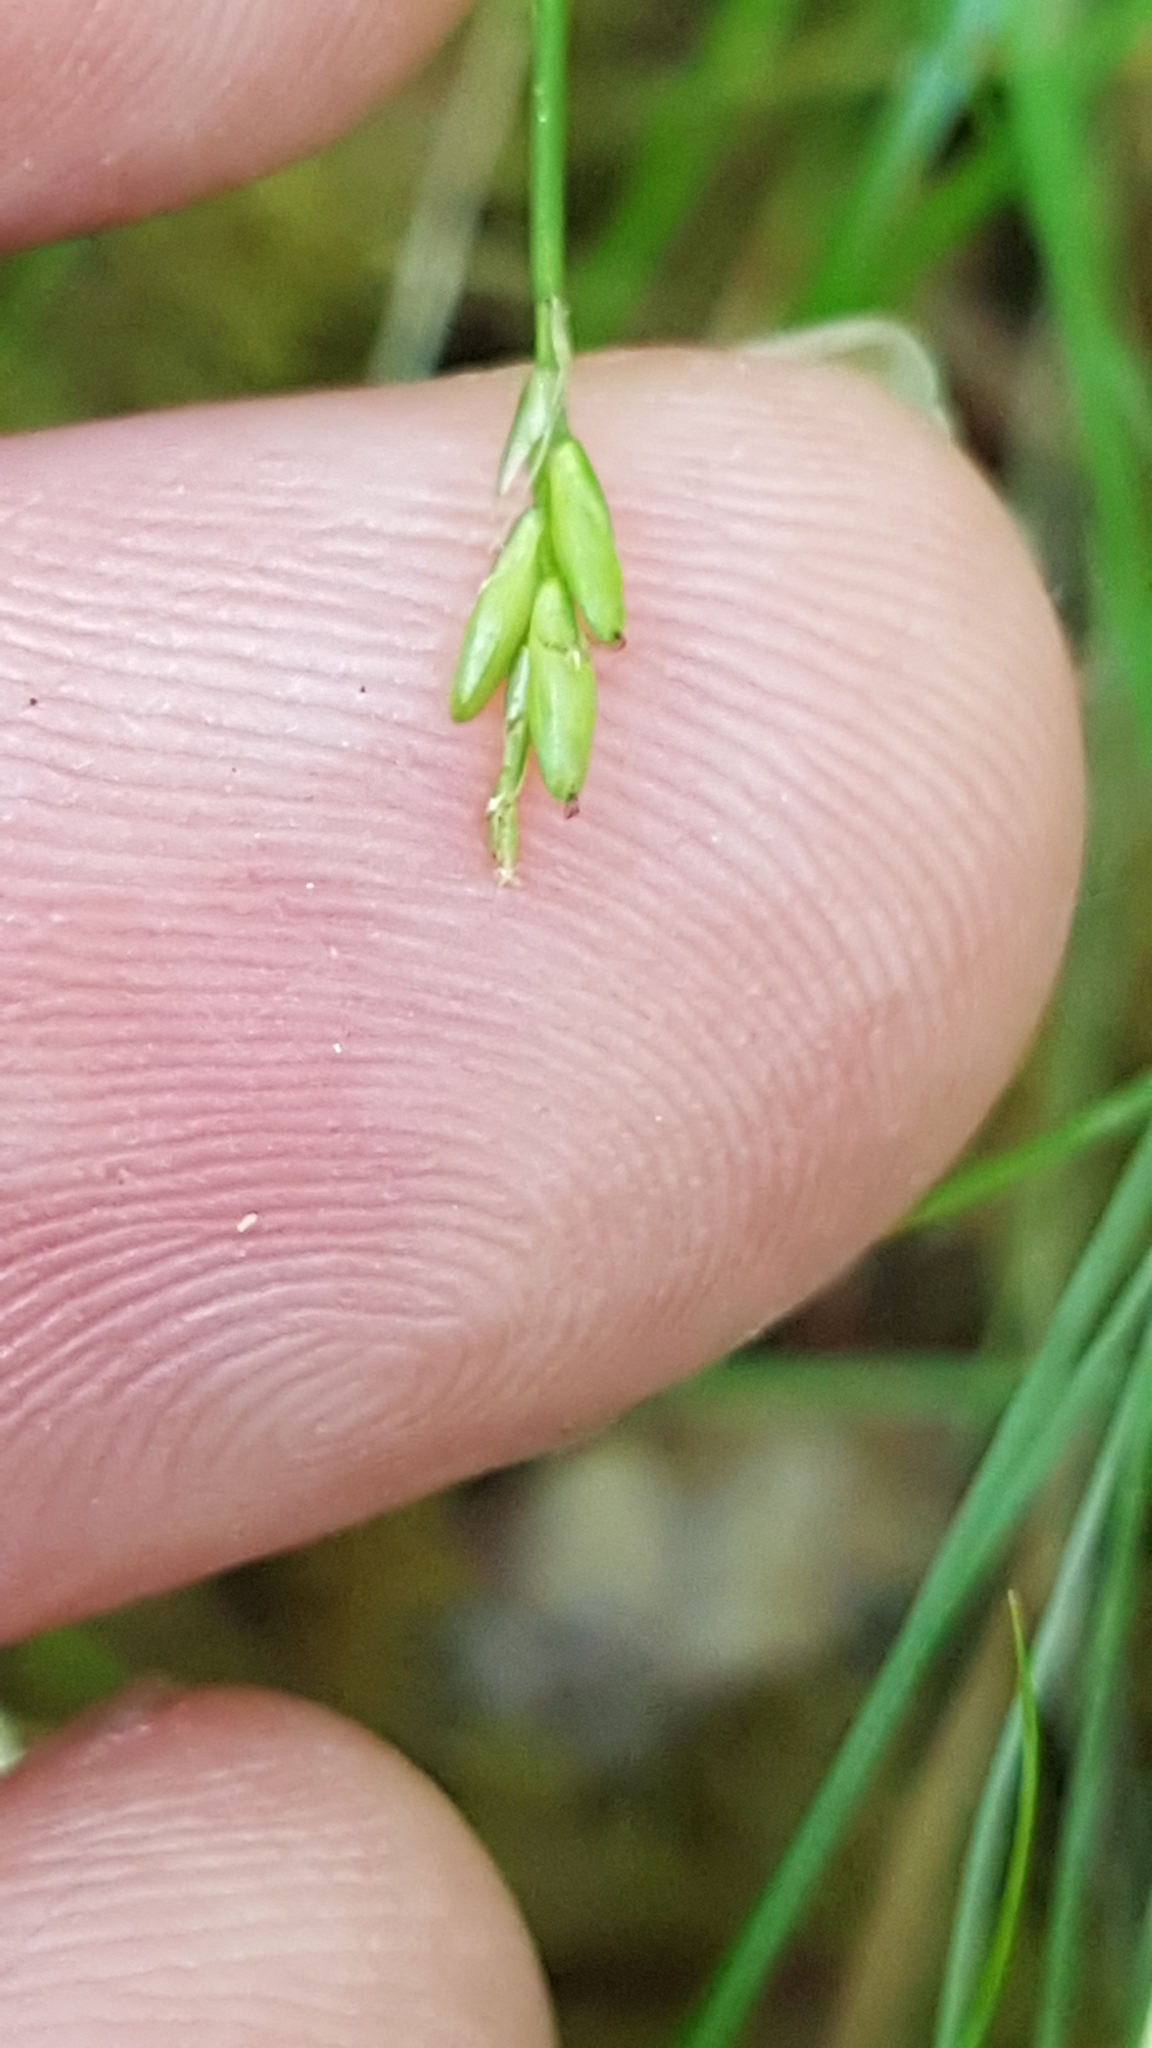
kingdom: Plantae
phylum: Tracheophyta
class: Liliopsida
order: Poales
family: Cyperaceae
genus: Carex
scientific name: Carex leptalea
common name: Bristly-stalked sedge
